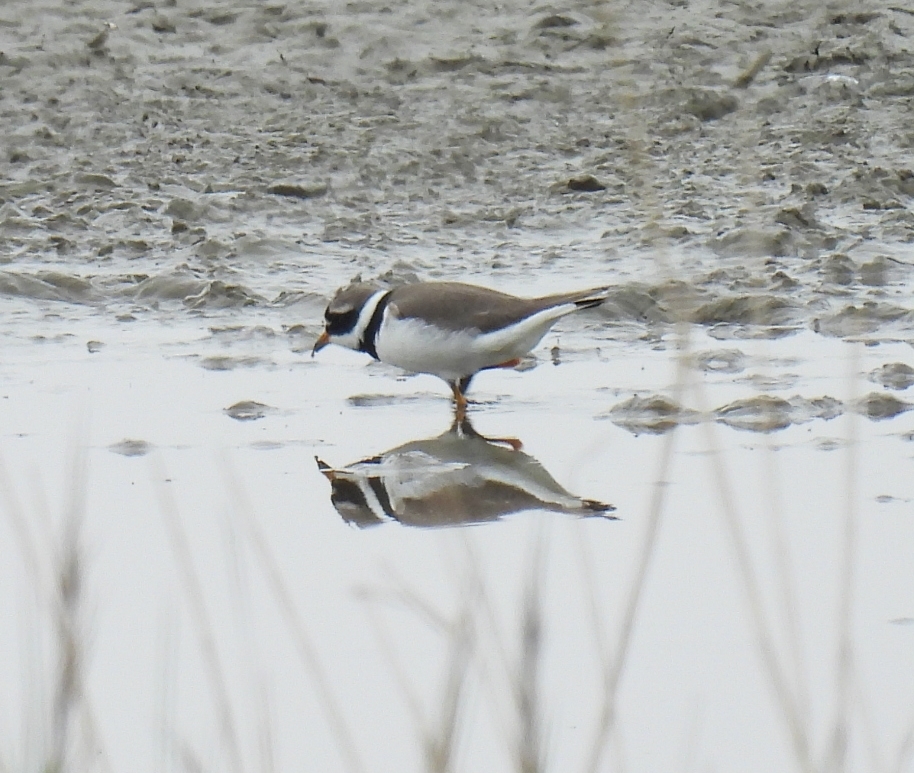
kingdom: Animalia
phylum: Chordata
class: Aves
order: Charadriiformes
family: Charadriidae
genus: Charadrius
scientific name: Charadrius hiaticula
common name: Common ringed plover
